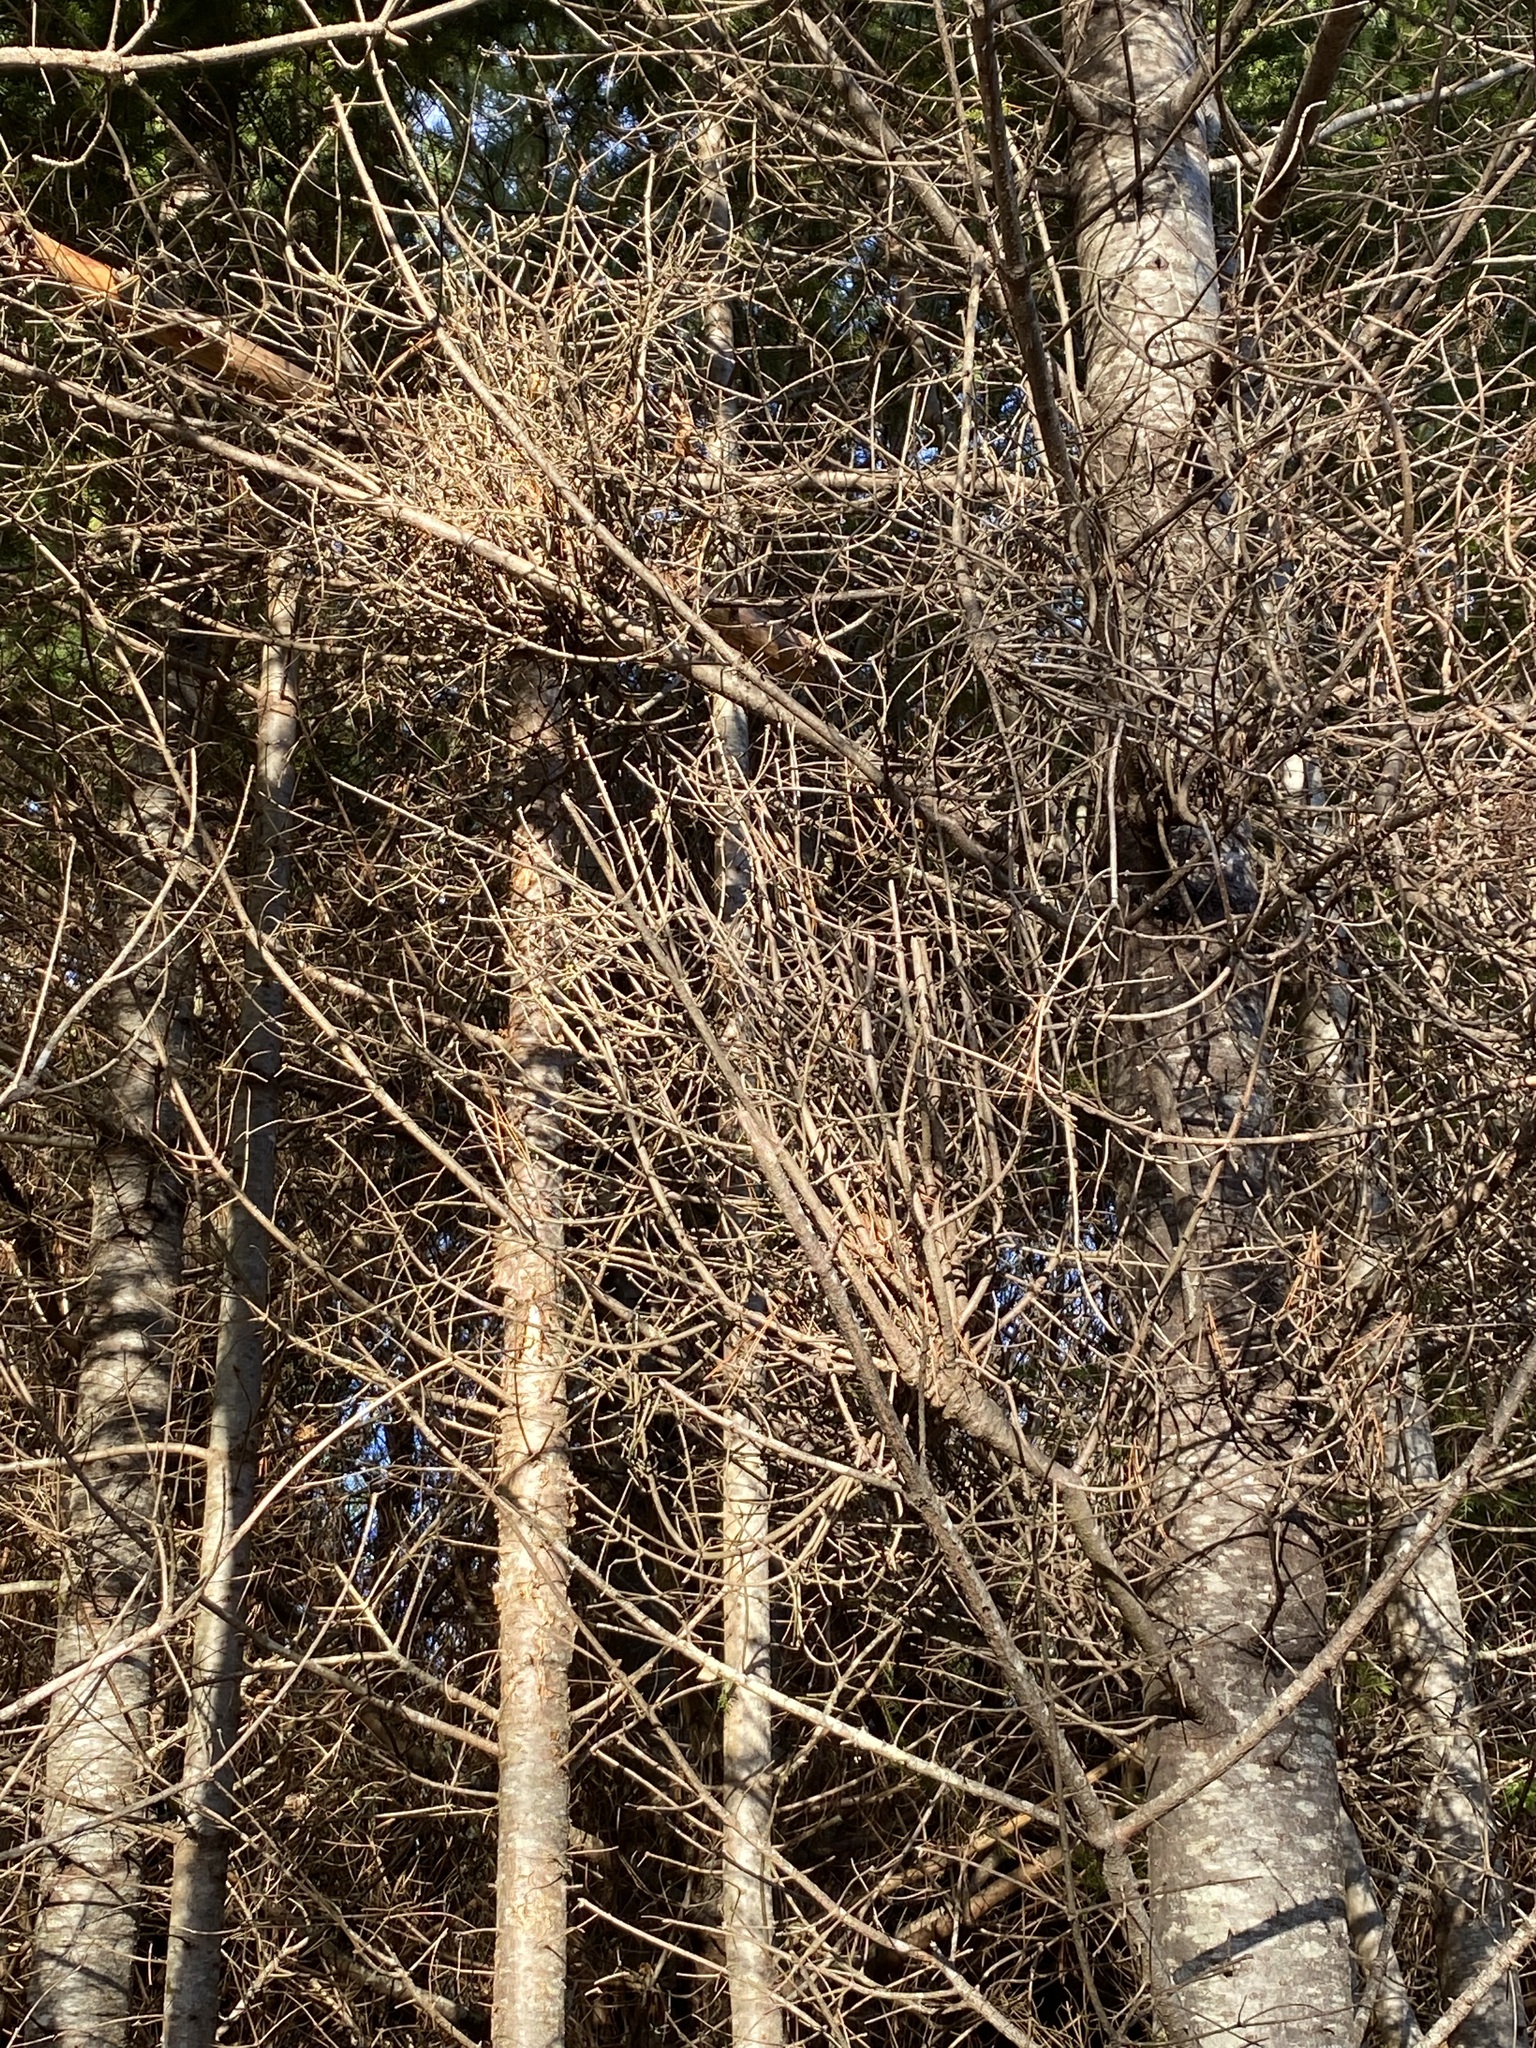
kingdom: Fungi
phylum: Basidiomycota
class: Pucciniomycetes
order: Pucciniales
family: Pucciniastraceae
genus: Melampsorella
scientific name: Melampsorella elatina
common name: Fir broom rust
